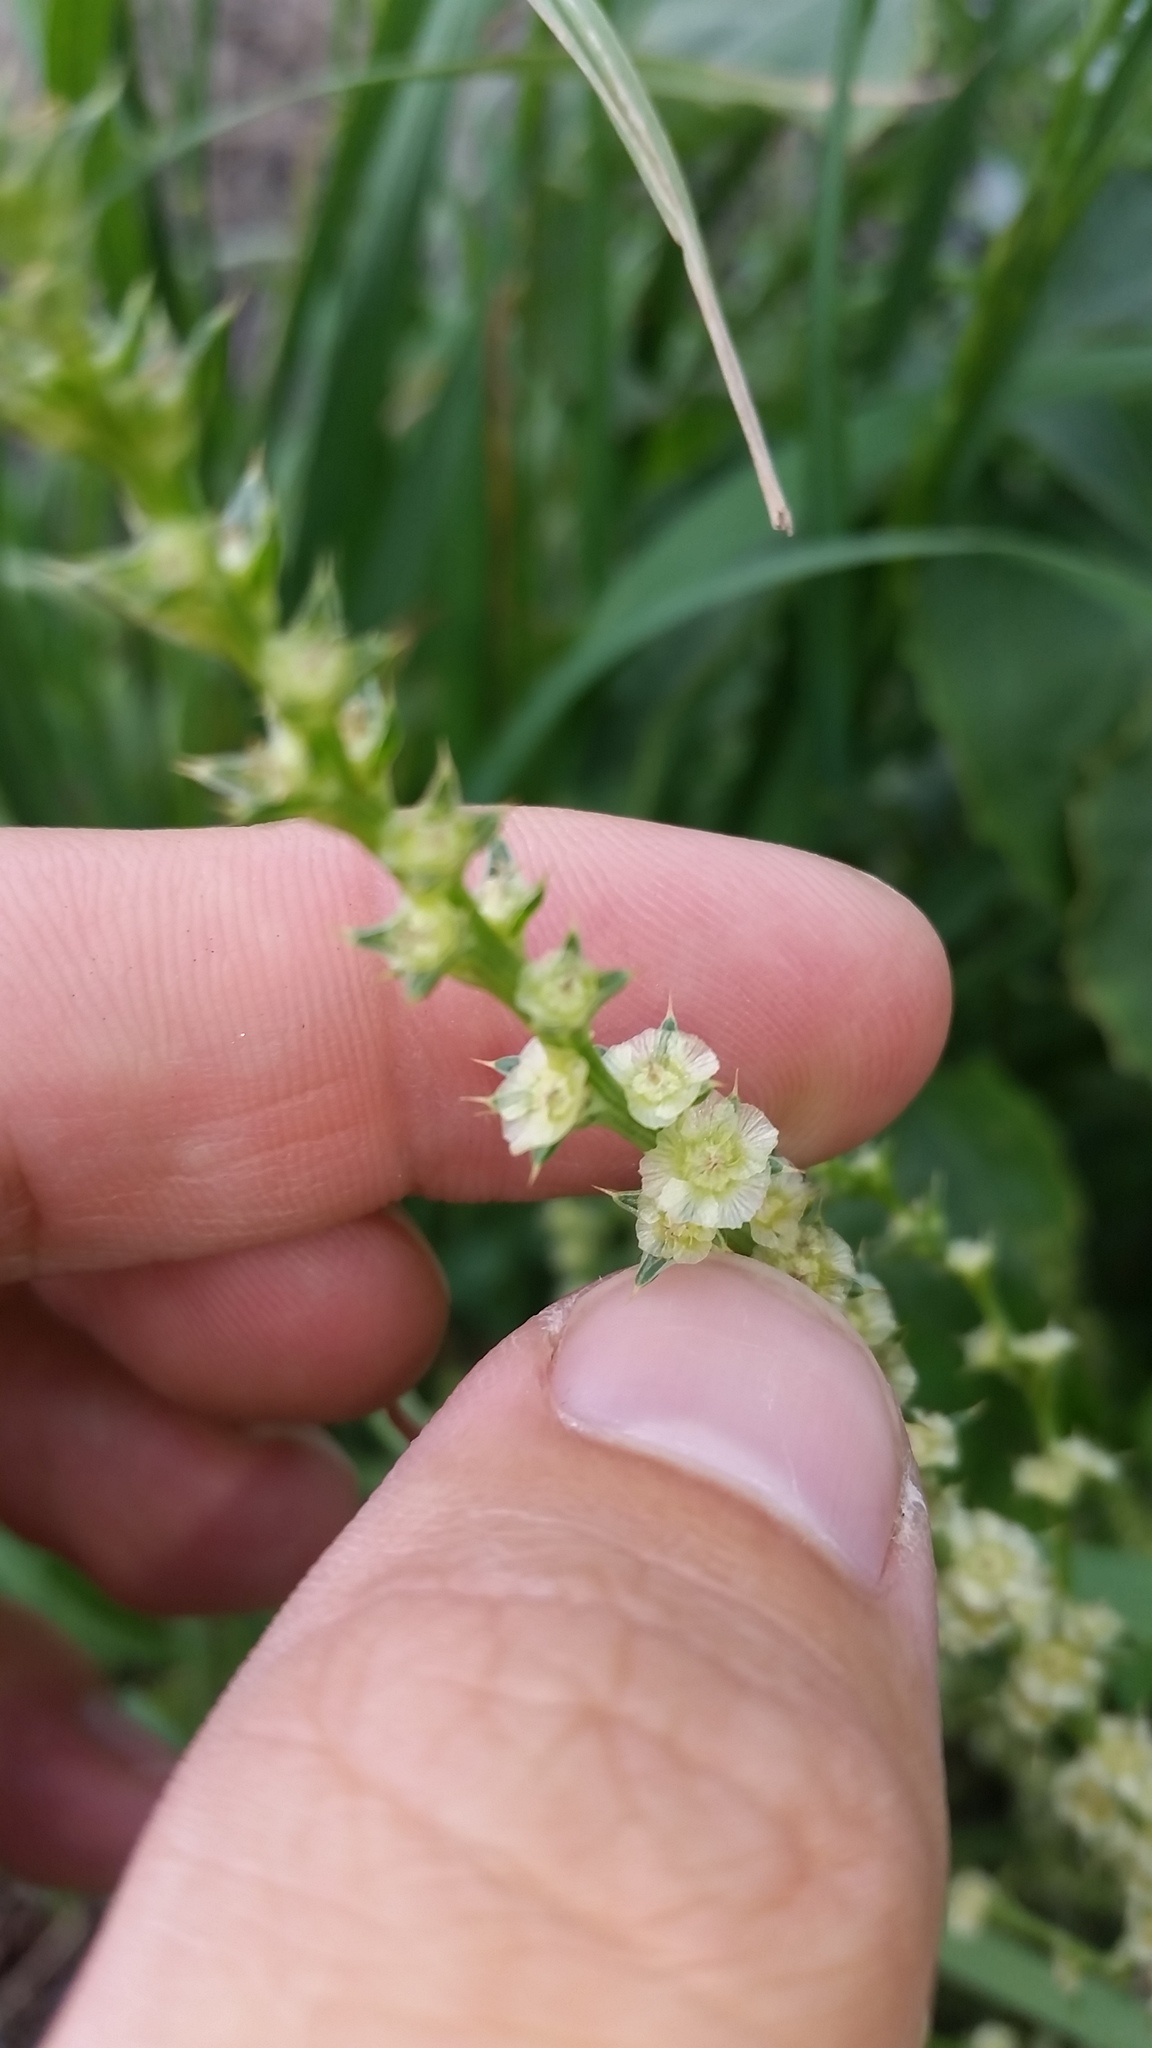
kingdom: Plantae
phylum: Tracheophyta
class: Magnoliopsida
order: Caryophyllales
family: Amaranthaceae
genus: Salsola
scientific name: Salsola tragus
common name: Prickly russian thistle
